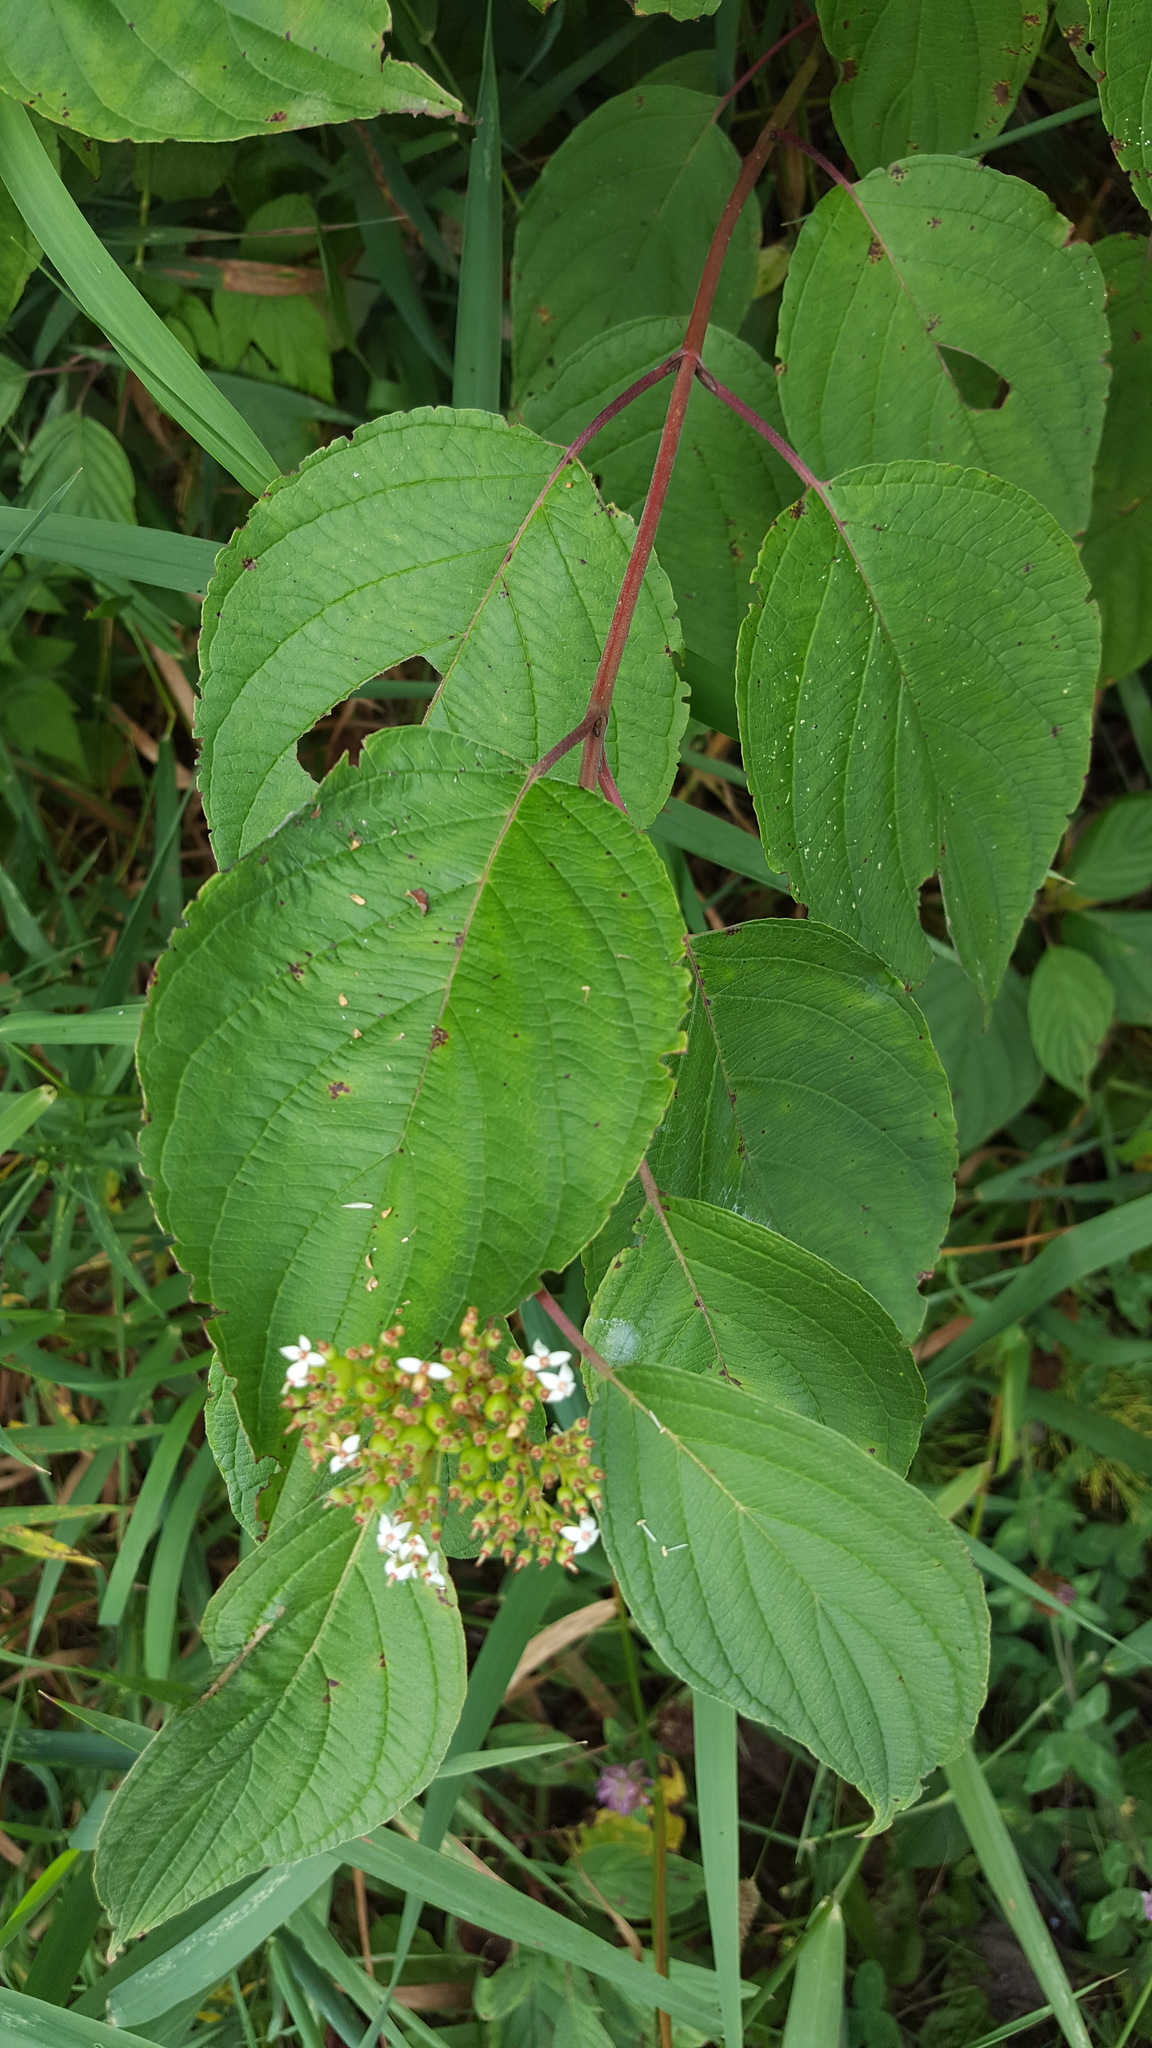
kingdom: Plantae
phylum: Tracheophyta
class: Magnoliopsida
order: Cornales
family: Cornaceae
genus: Cornus
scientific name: Cornus sericea
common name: Red-osier dogwood
